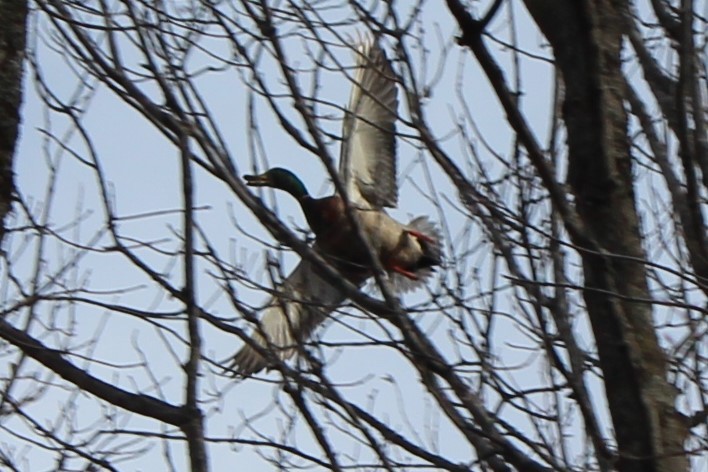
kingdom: Animalia
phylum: Chordata
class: Aves
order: Anseriformes
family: Anatidae
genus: Anas
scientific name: Anas platyrhynchos
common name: Mallard
